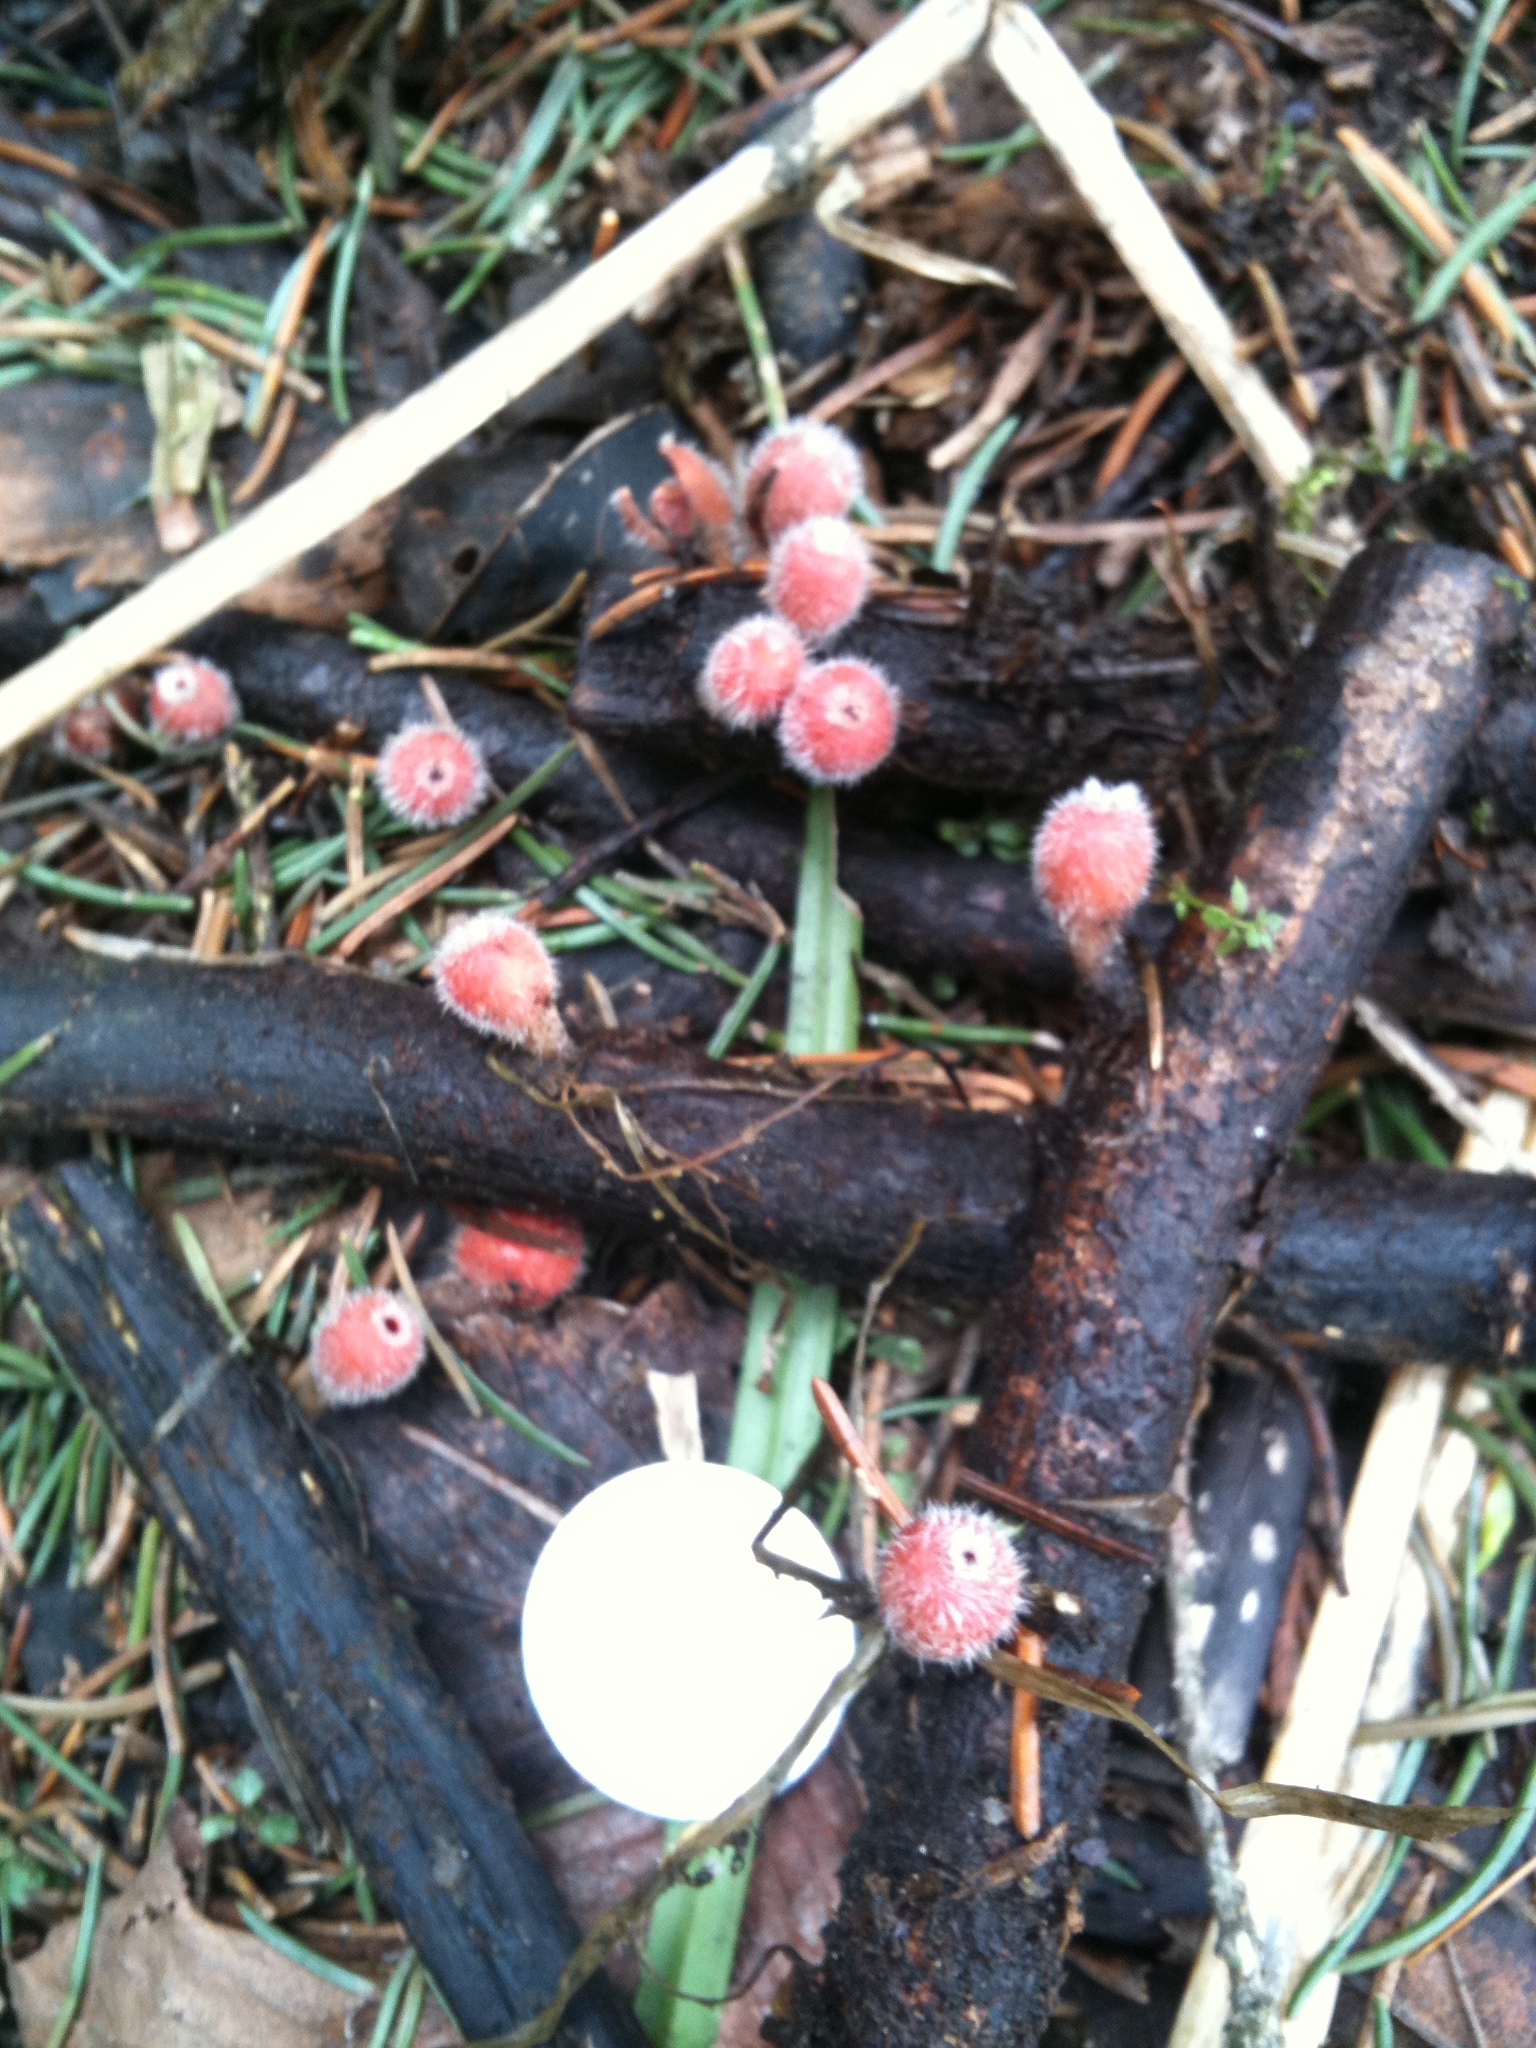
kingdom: Fungi
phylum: Ascomycota
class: Pezizomycetes
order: Pezizales
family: Sarcoscyphaceae
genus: Microstoma
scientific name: Microstoma macrosporum
